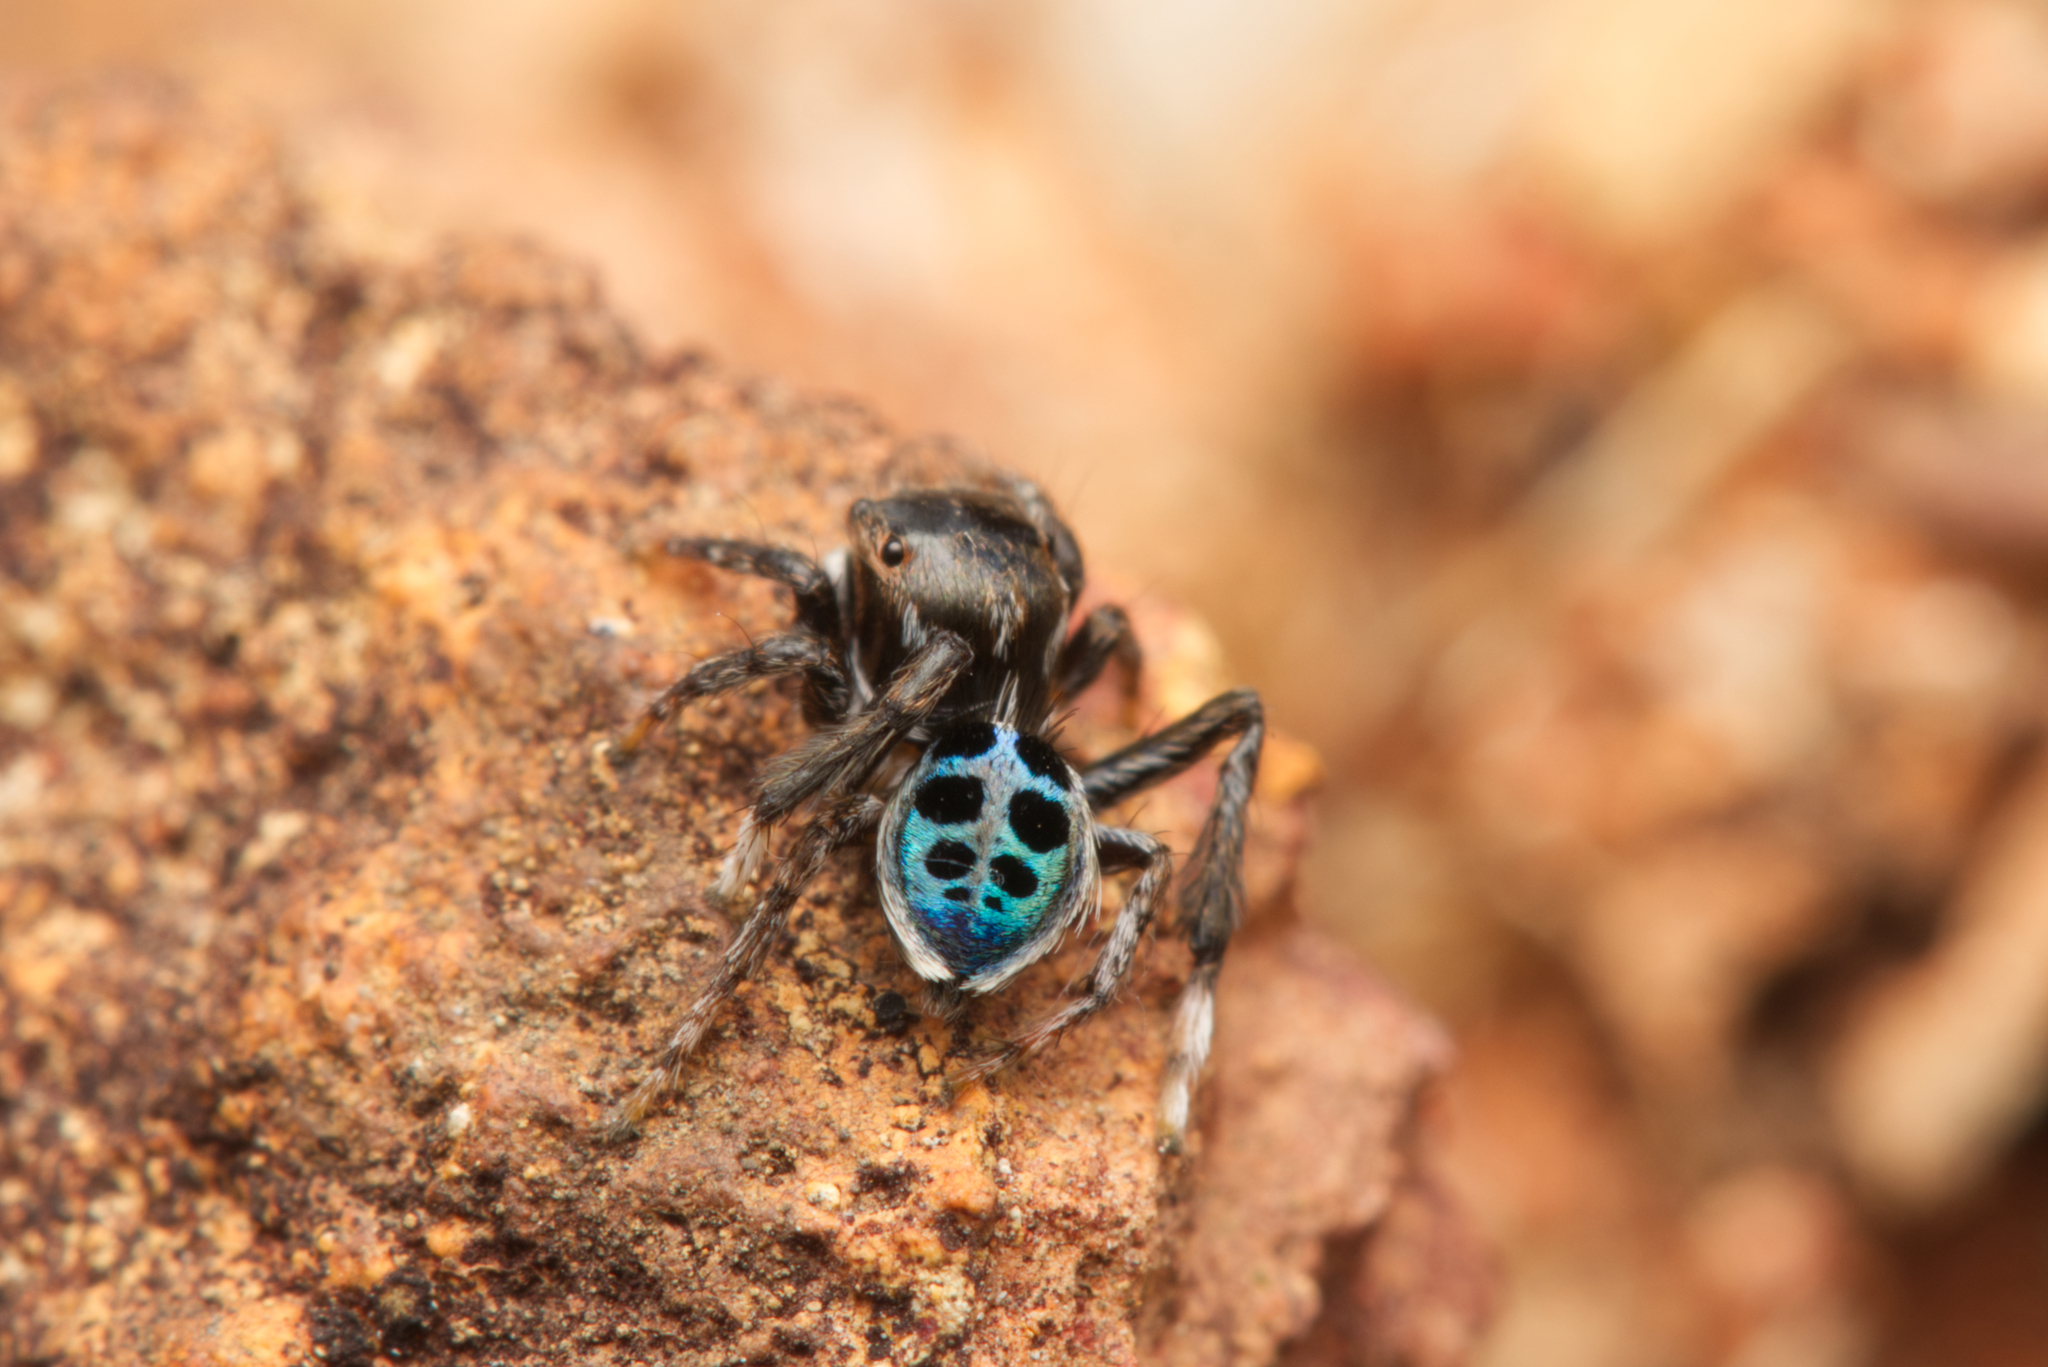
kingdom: Animalia
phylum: Arthropoda
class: Arachnida
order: Araneae
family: Salticidae
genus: Maratus
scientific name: Maratus nigromaculatus
